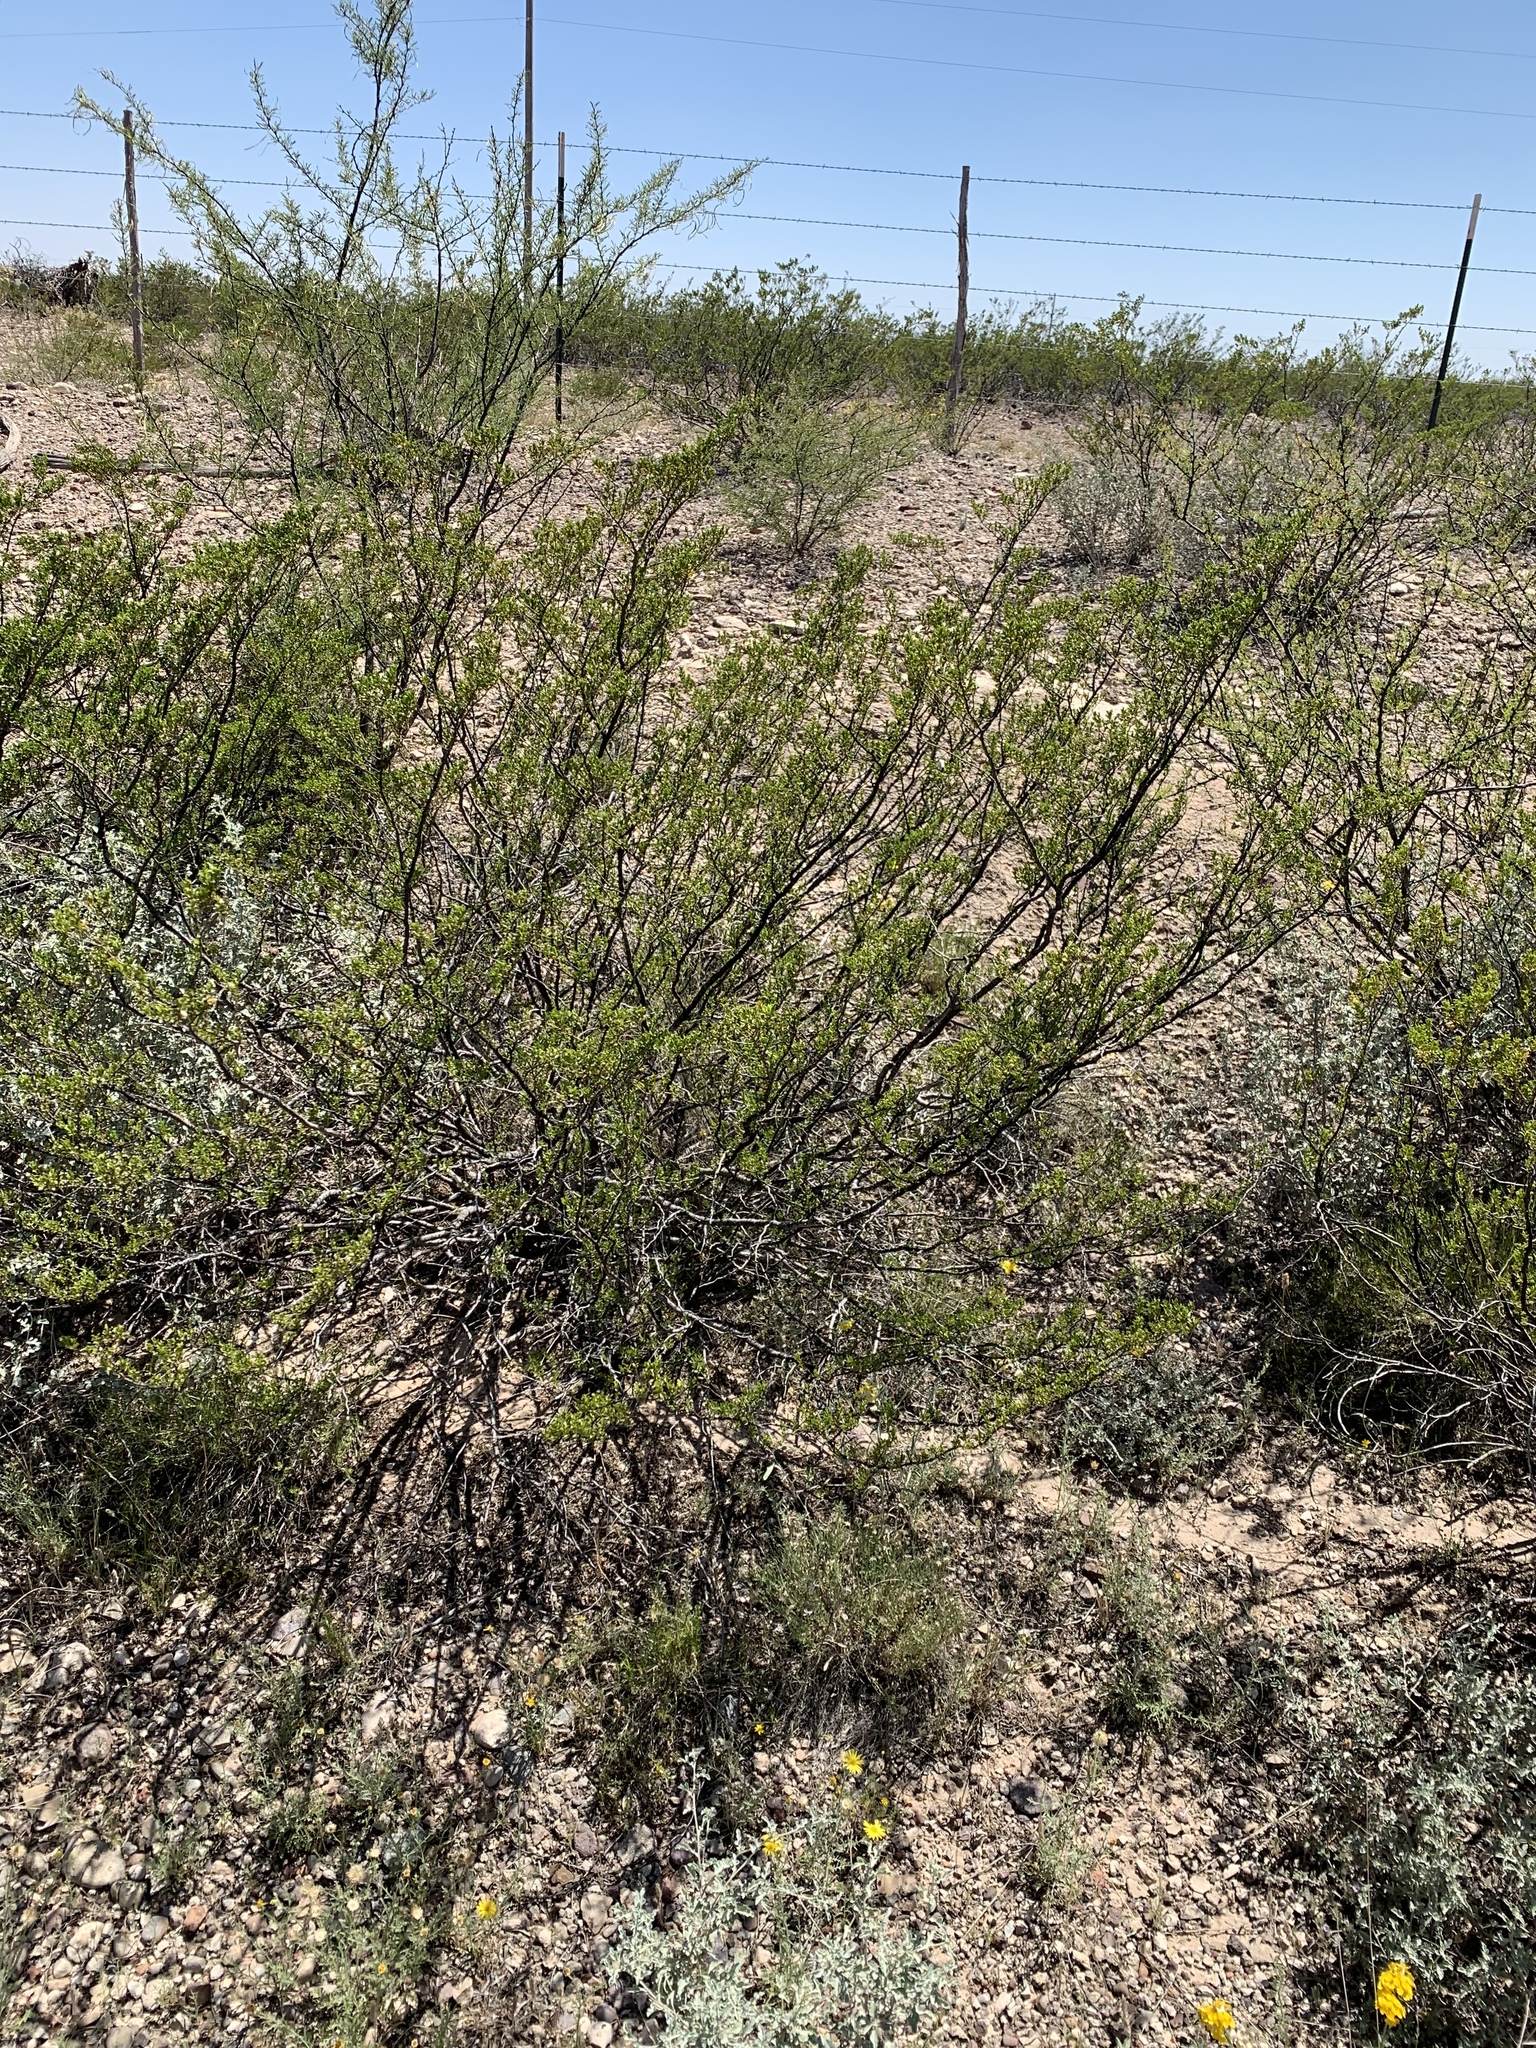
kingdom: Plantae
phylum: Tracheophyta
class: Magnoliopsida
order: Zygophyllales
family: Zygophyllaceae
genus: Larrea
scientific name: Larrea tridentata
